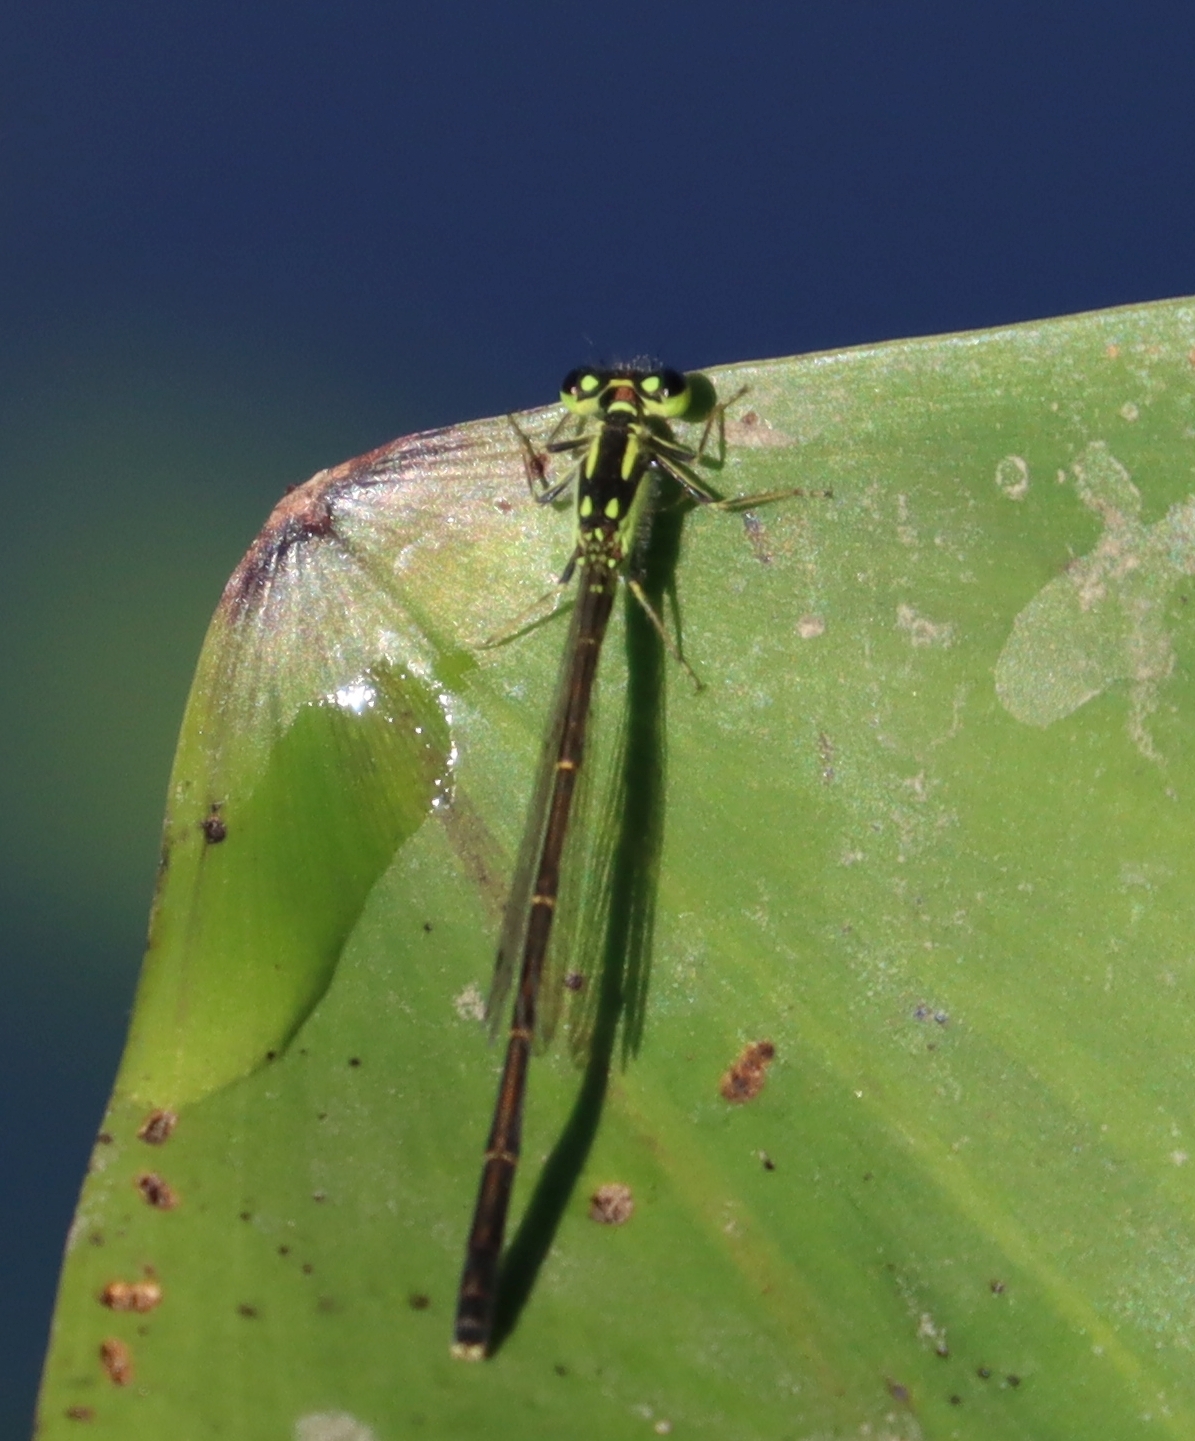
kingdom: Animalia
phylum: Arthropoda
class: Insecta
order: Odonata
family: Coenagrionidae
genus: Ischnura
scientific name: Ischnura posita
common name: Fragile forktail
